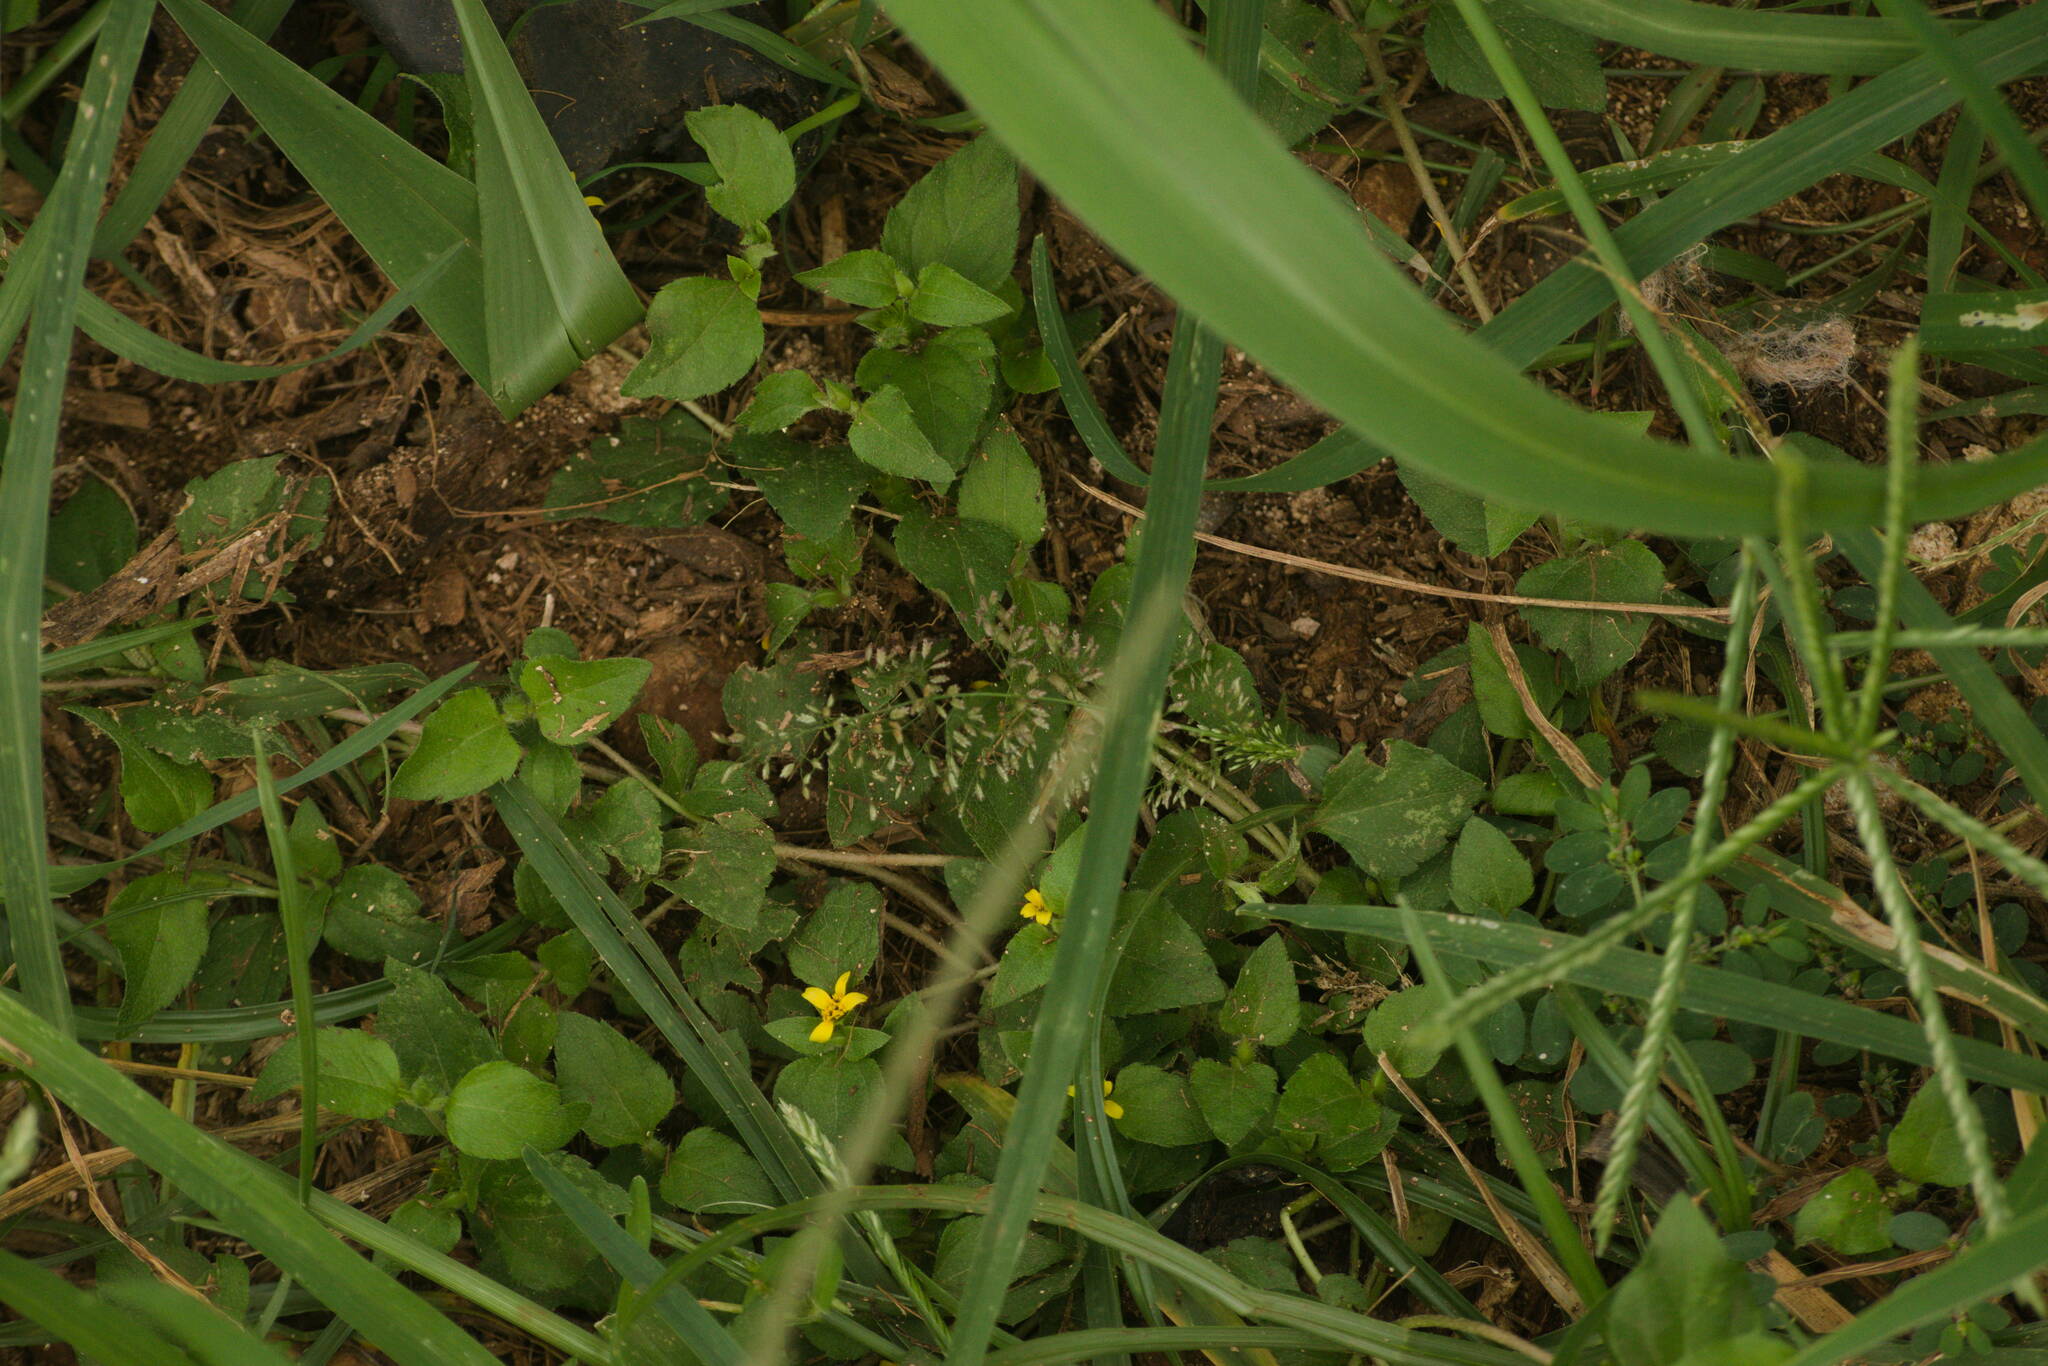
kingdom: Plantae
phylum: Tracheophyta
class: Liliopsida
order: Poales
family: Poaceae
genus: Eragrostis
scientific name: Eragrostis tenella
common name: Japanese lovegrass
